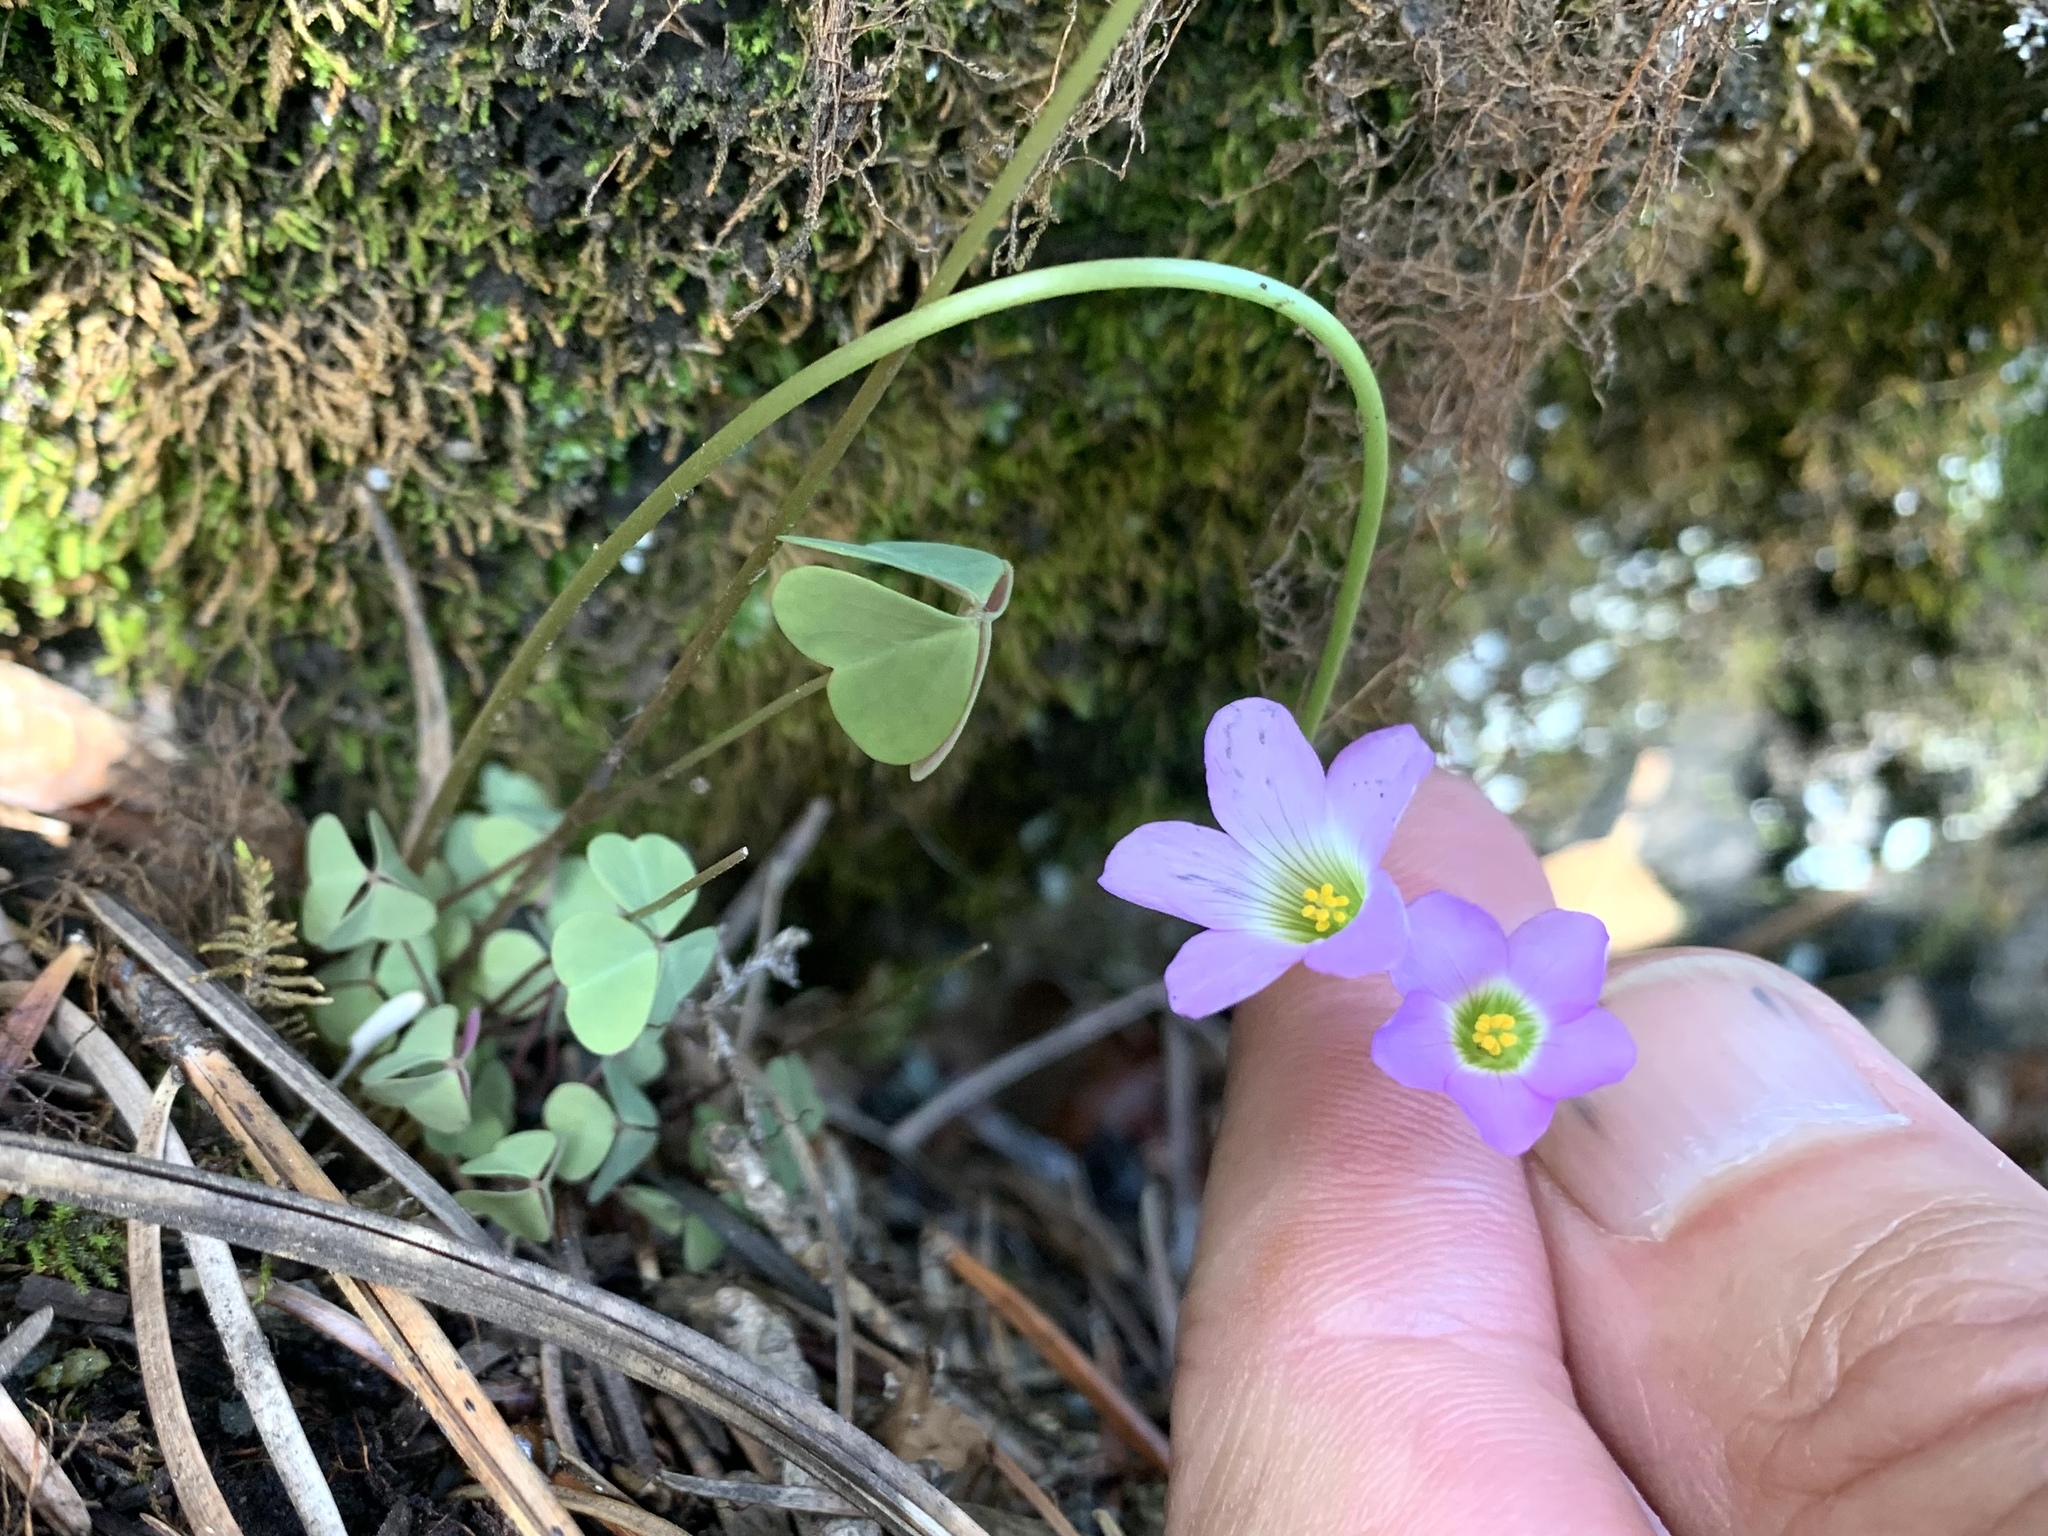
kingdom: Plantae
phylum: Tracheophyta
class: Magnoliopsida
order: Oxalidales
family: Oxalidaceae
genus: Oxalis
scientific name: Oxalis metcalfei
